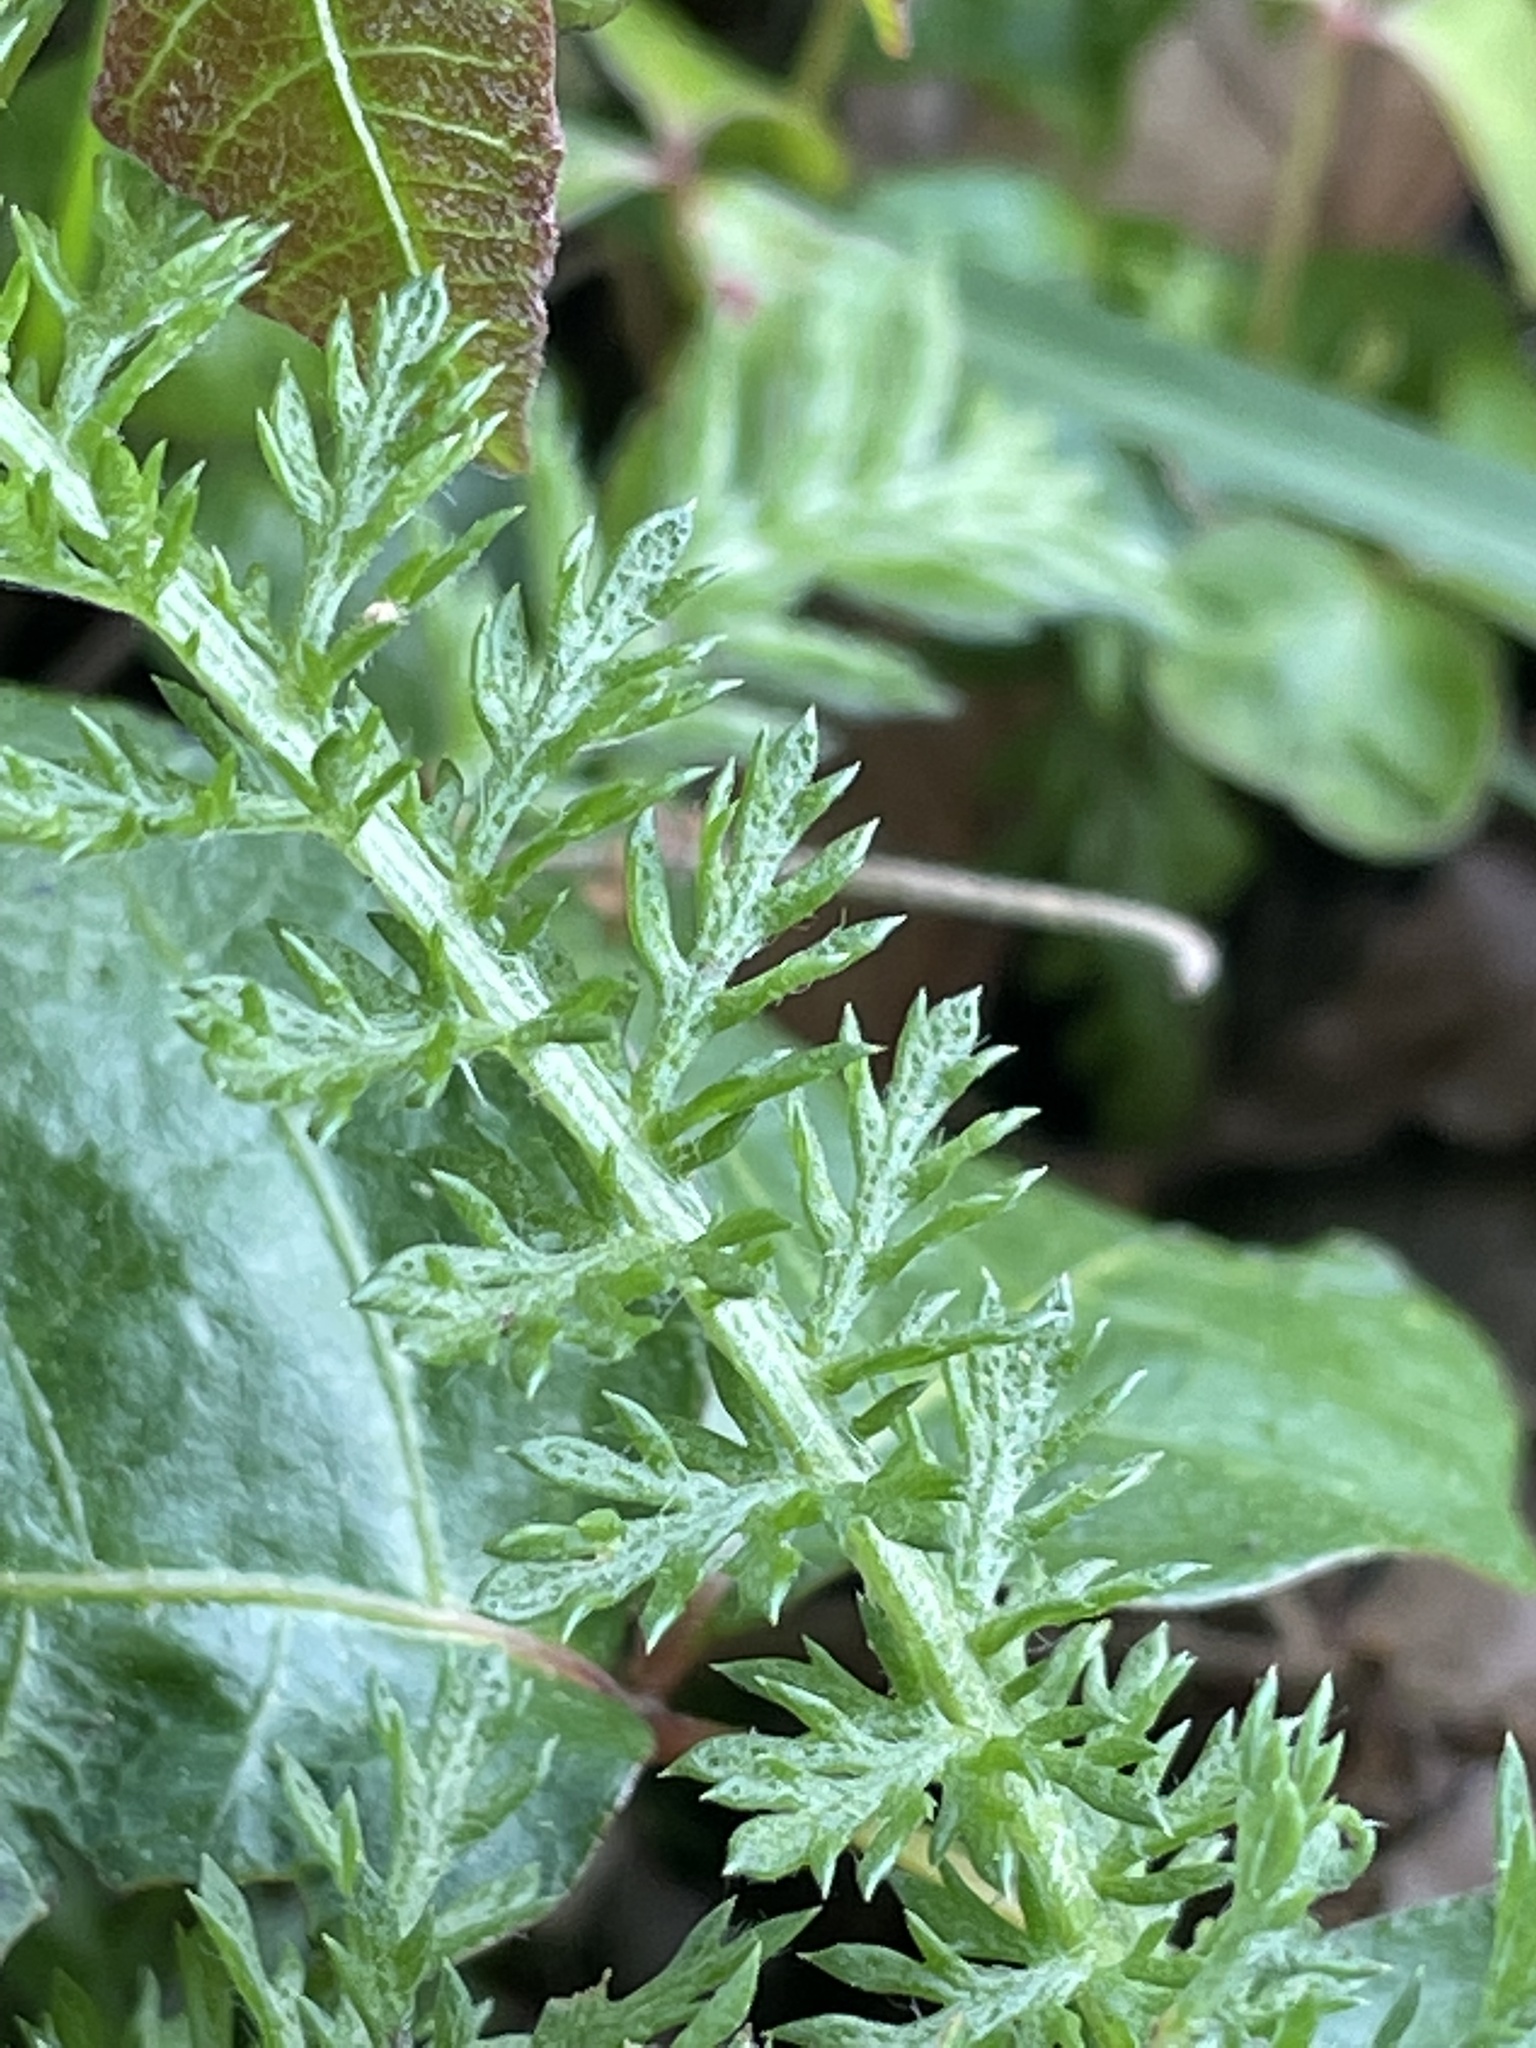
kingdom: Plantae
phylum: Tracheophyta
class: Magnoliopsida
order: Asterales
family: Asteraceae
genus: Achillea
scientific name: Achillea millefolium
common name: Yarrow
